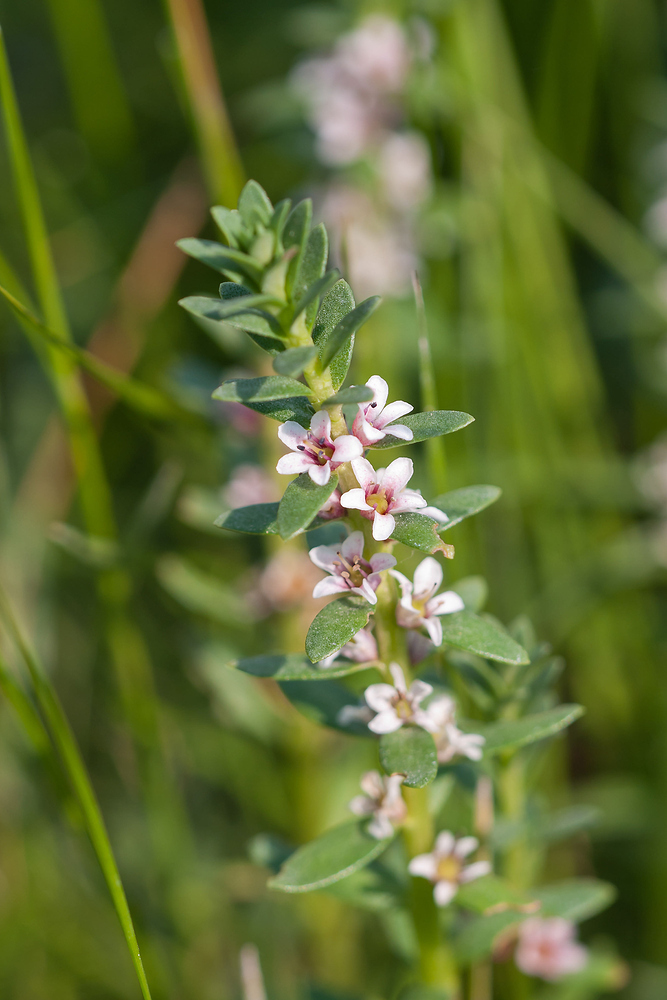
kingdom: Plantae
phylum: Tracheophyta
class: Magnoliopsida
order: Ericales
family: Primulaceae
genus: Lysimachia
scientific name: Lysimachia maritima
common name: Sea milkwort
